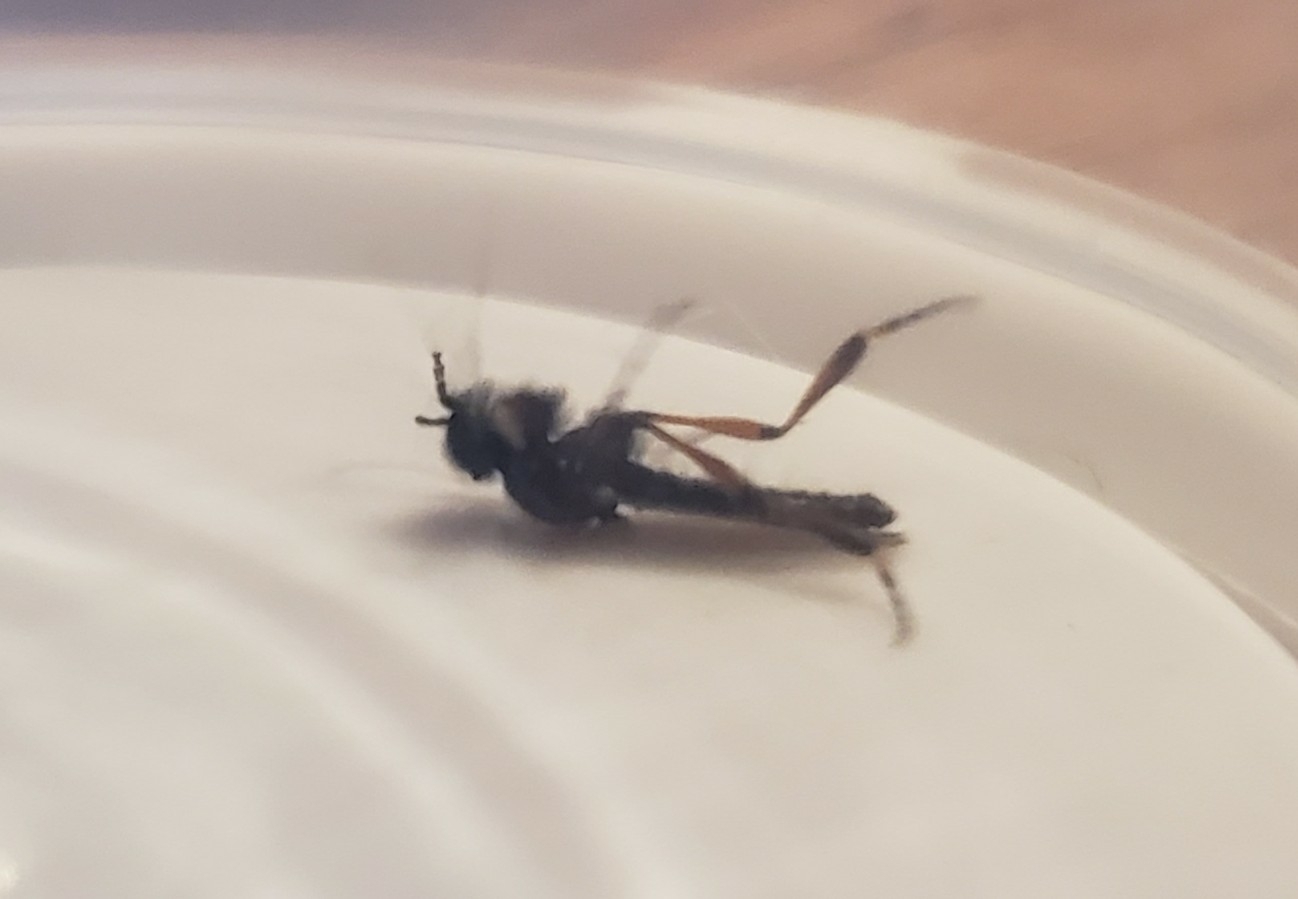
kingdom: Animalia
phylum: Arthropoda
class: Insecta
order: Diptera
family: Bibionidae
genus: Bibio
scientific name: Bibio
